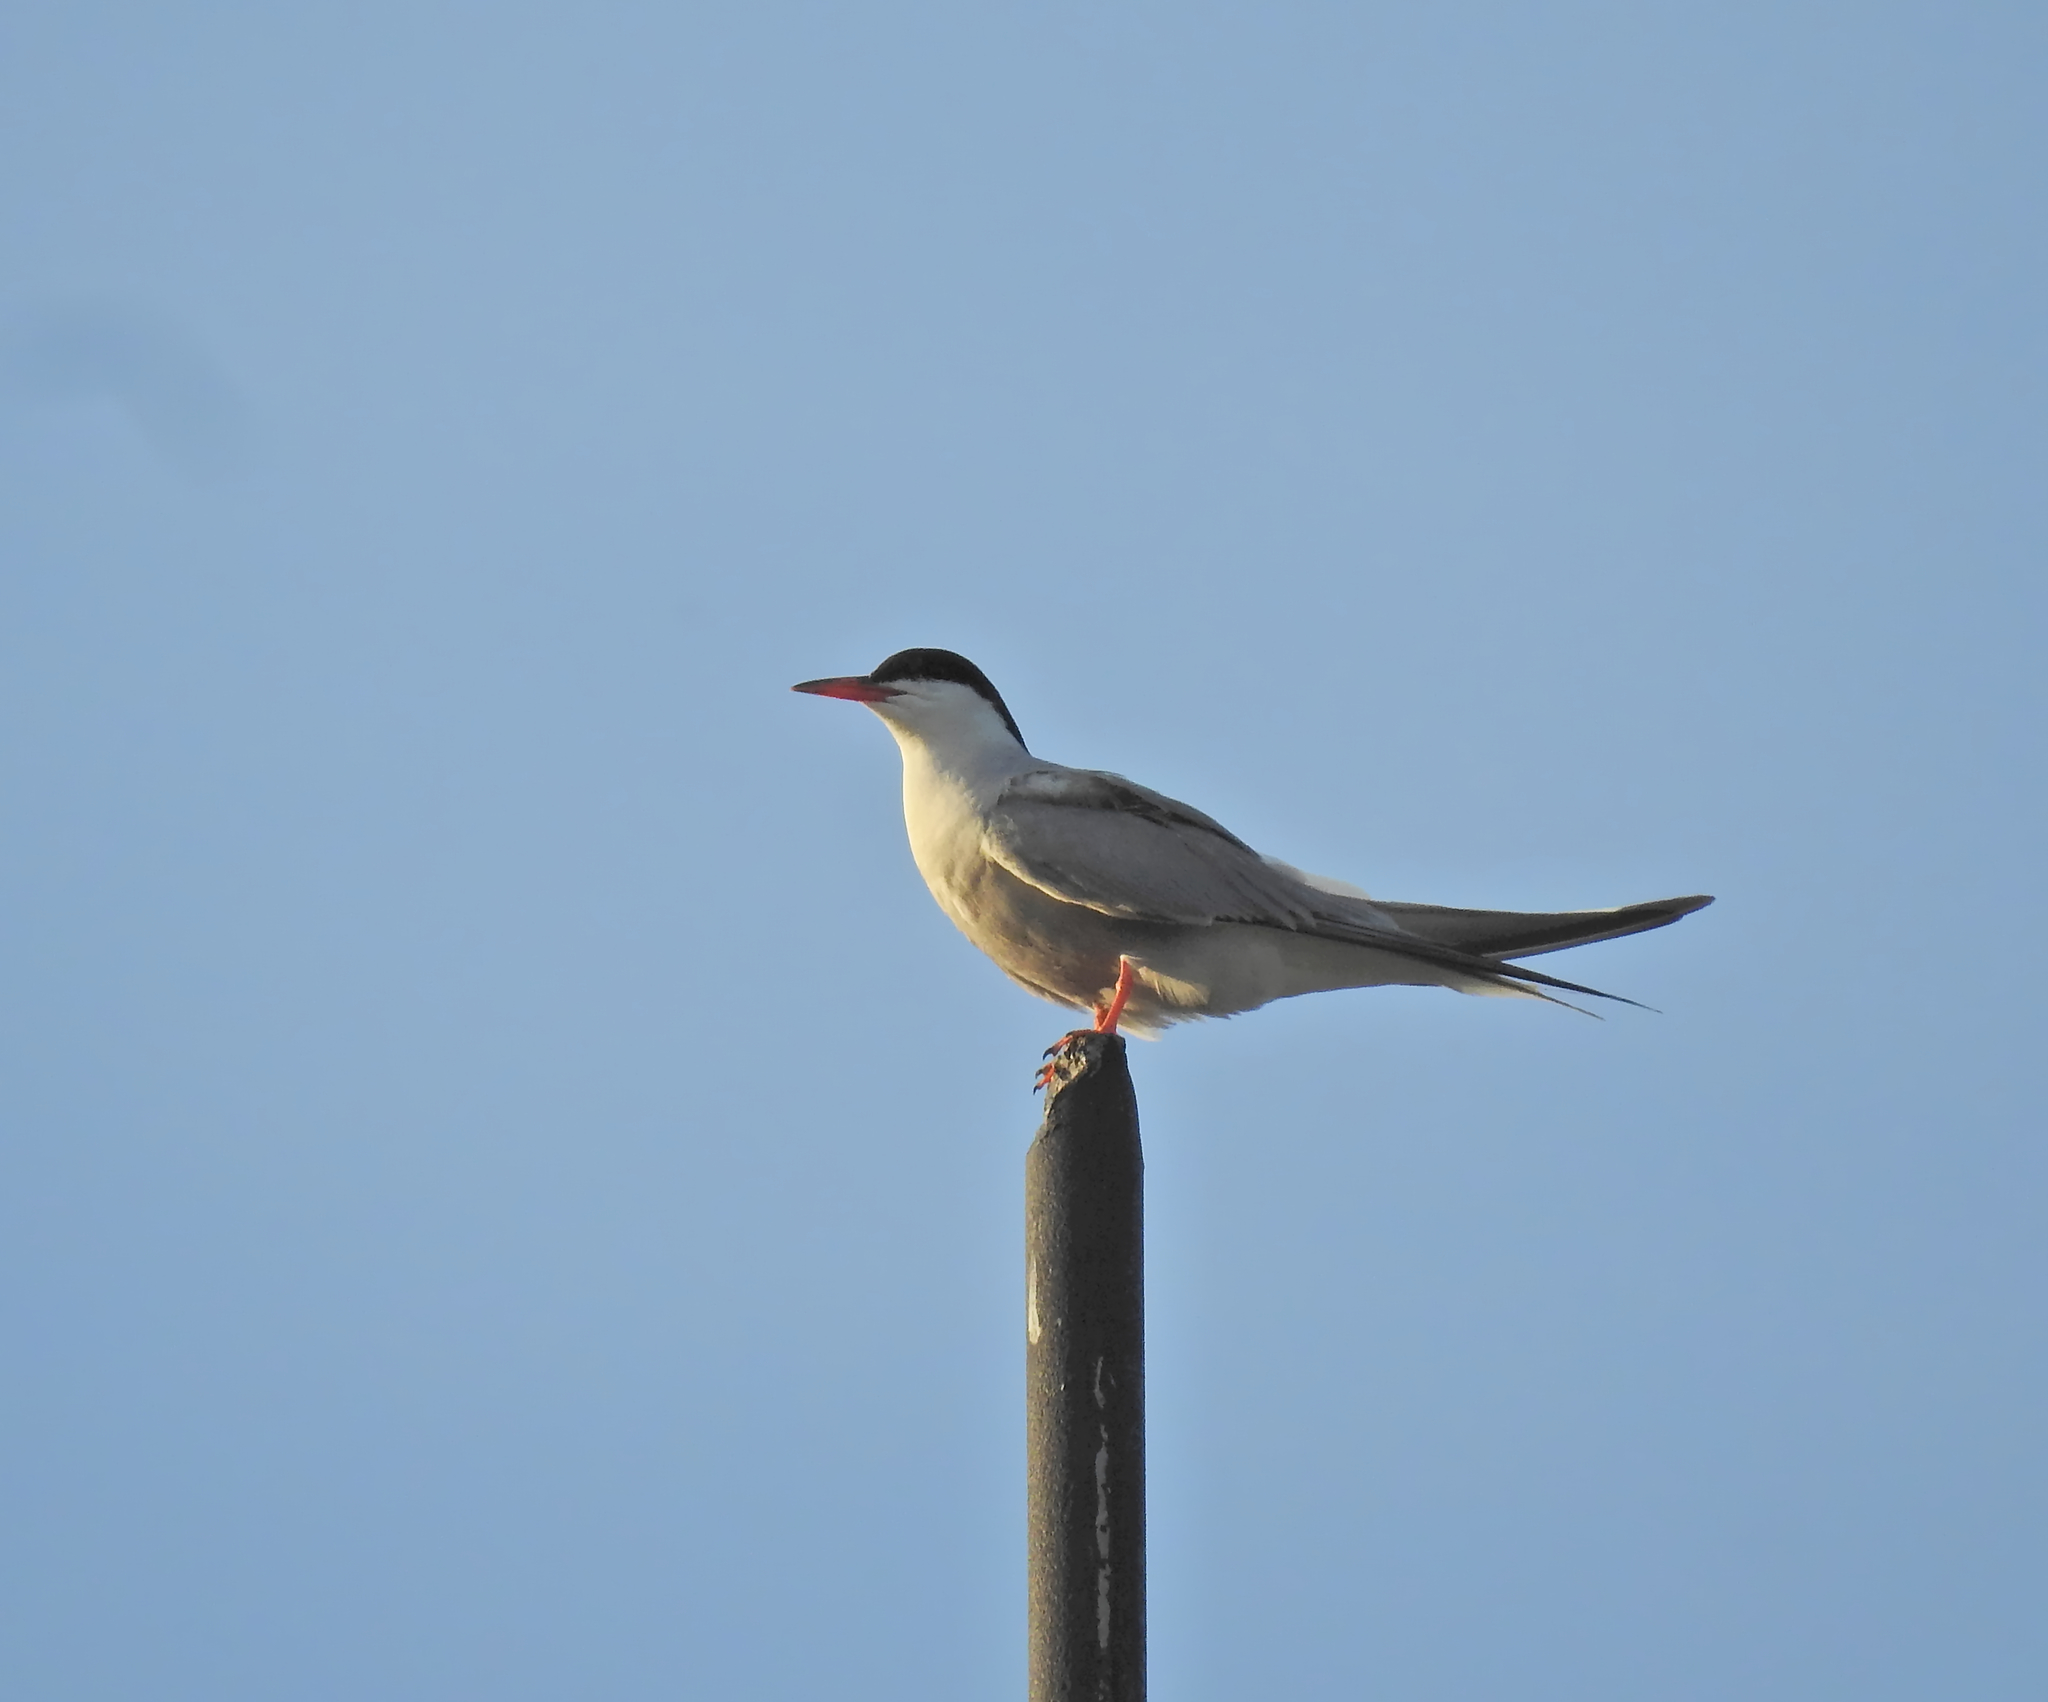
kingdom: Animalia
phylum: Chordata
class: Aves
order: Charadriiformes
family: Laridae
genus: Sterna
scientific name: Sterna hirundo
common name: Common tern
